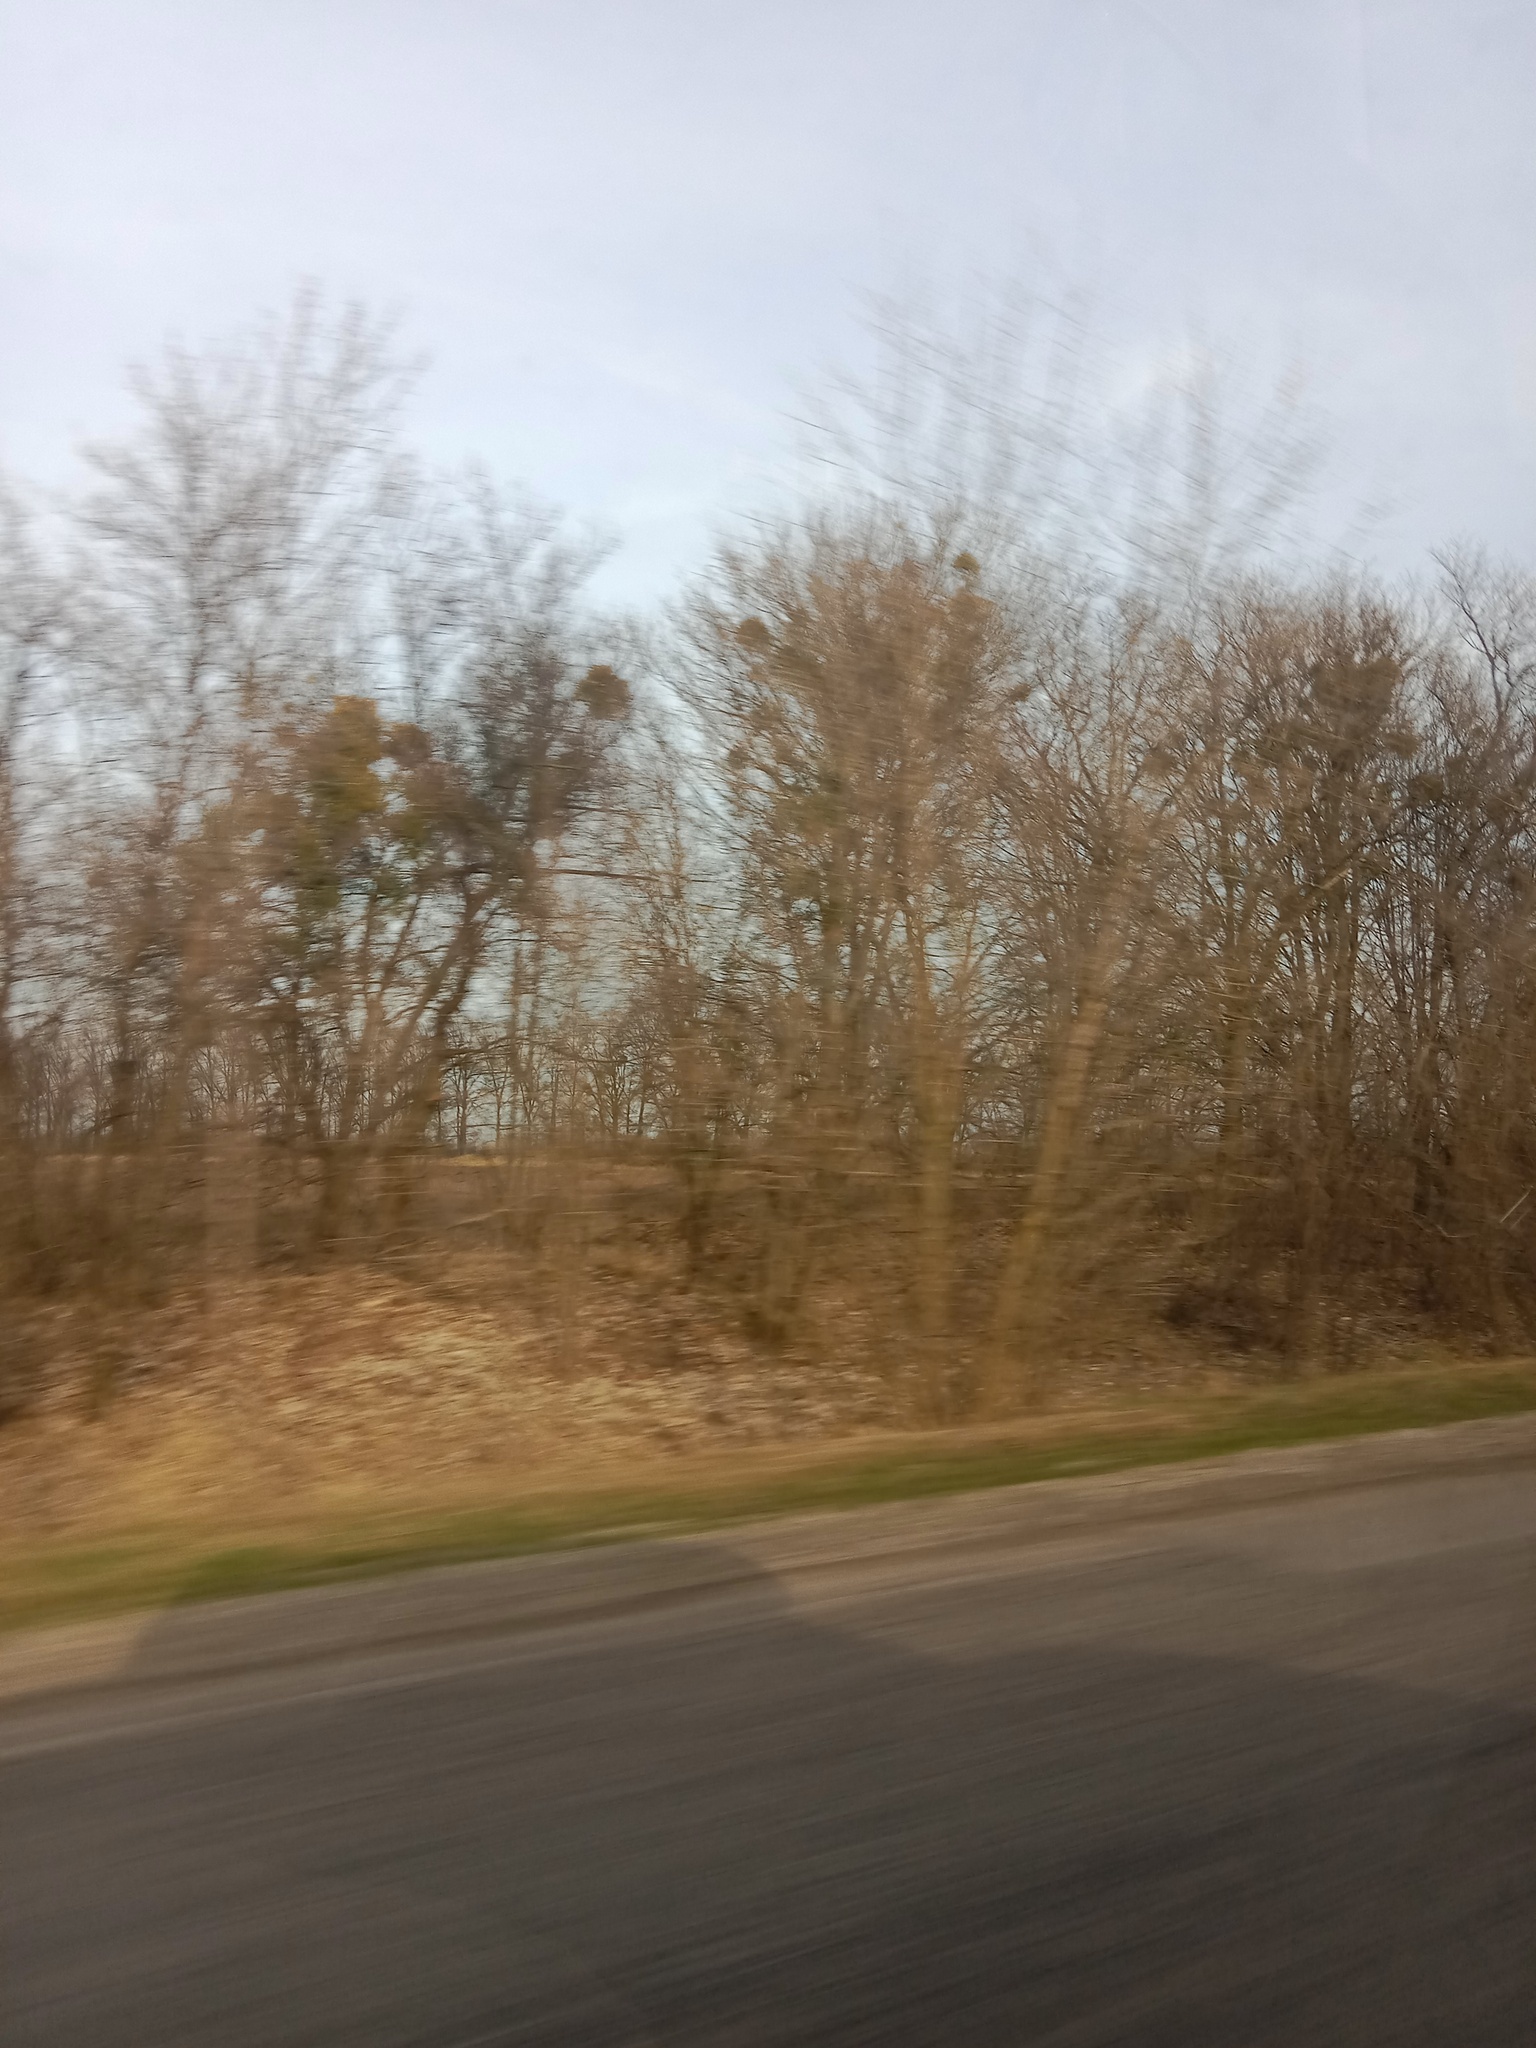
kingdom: Plantae
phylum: Tracheophyta
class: Magnoliopsida
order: Santalales
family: Viscaceae
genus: Viscum
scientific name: Viscum album
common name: Mistletoe
